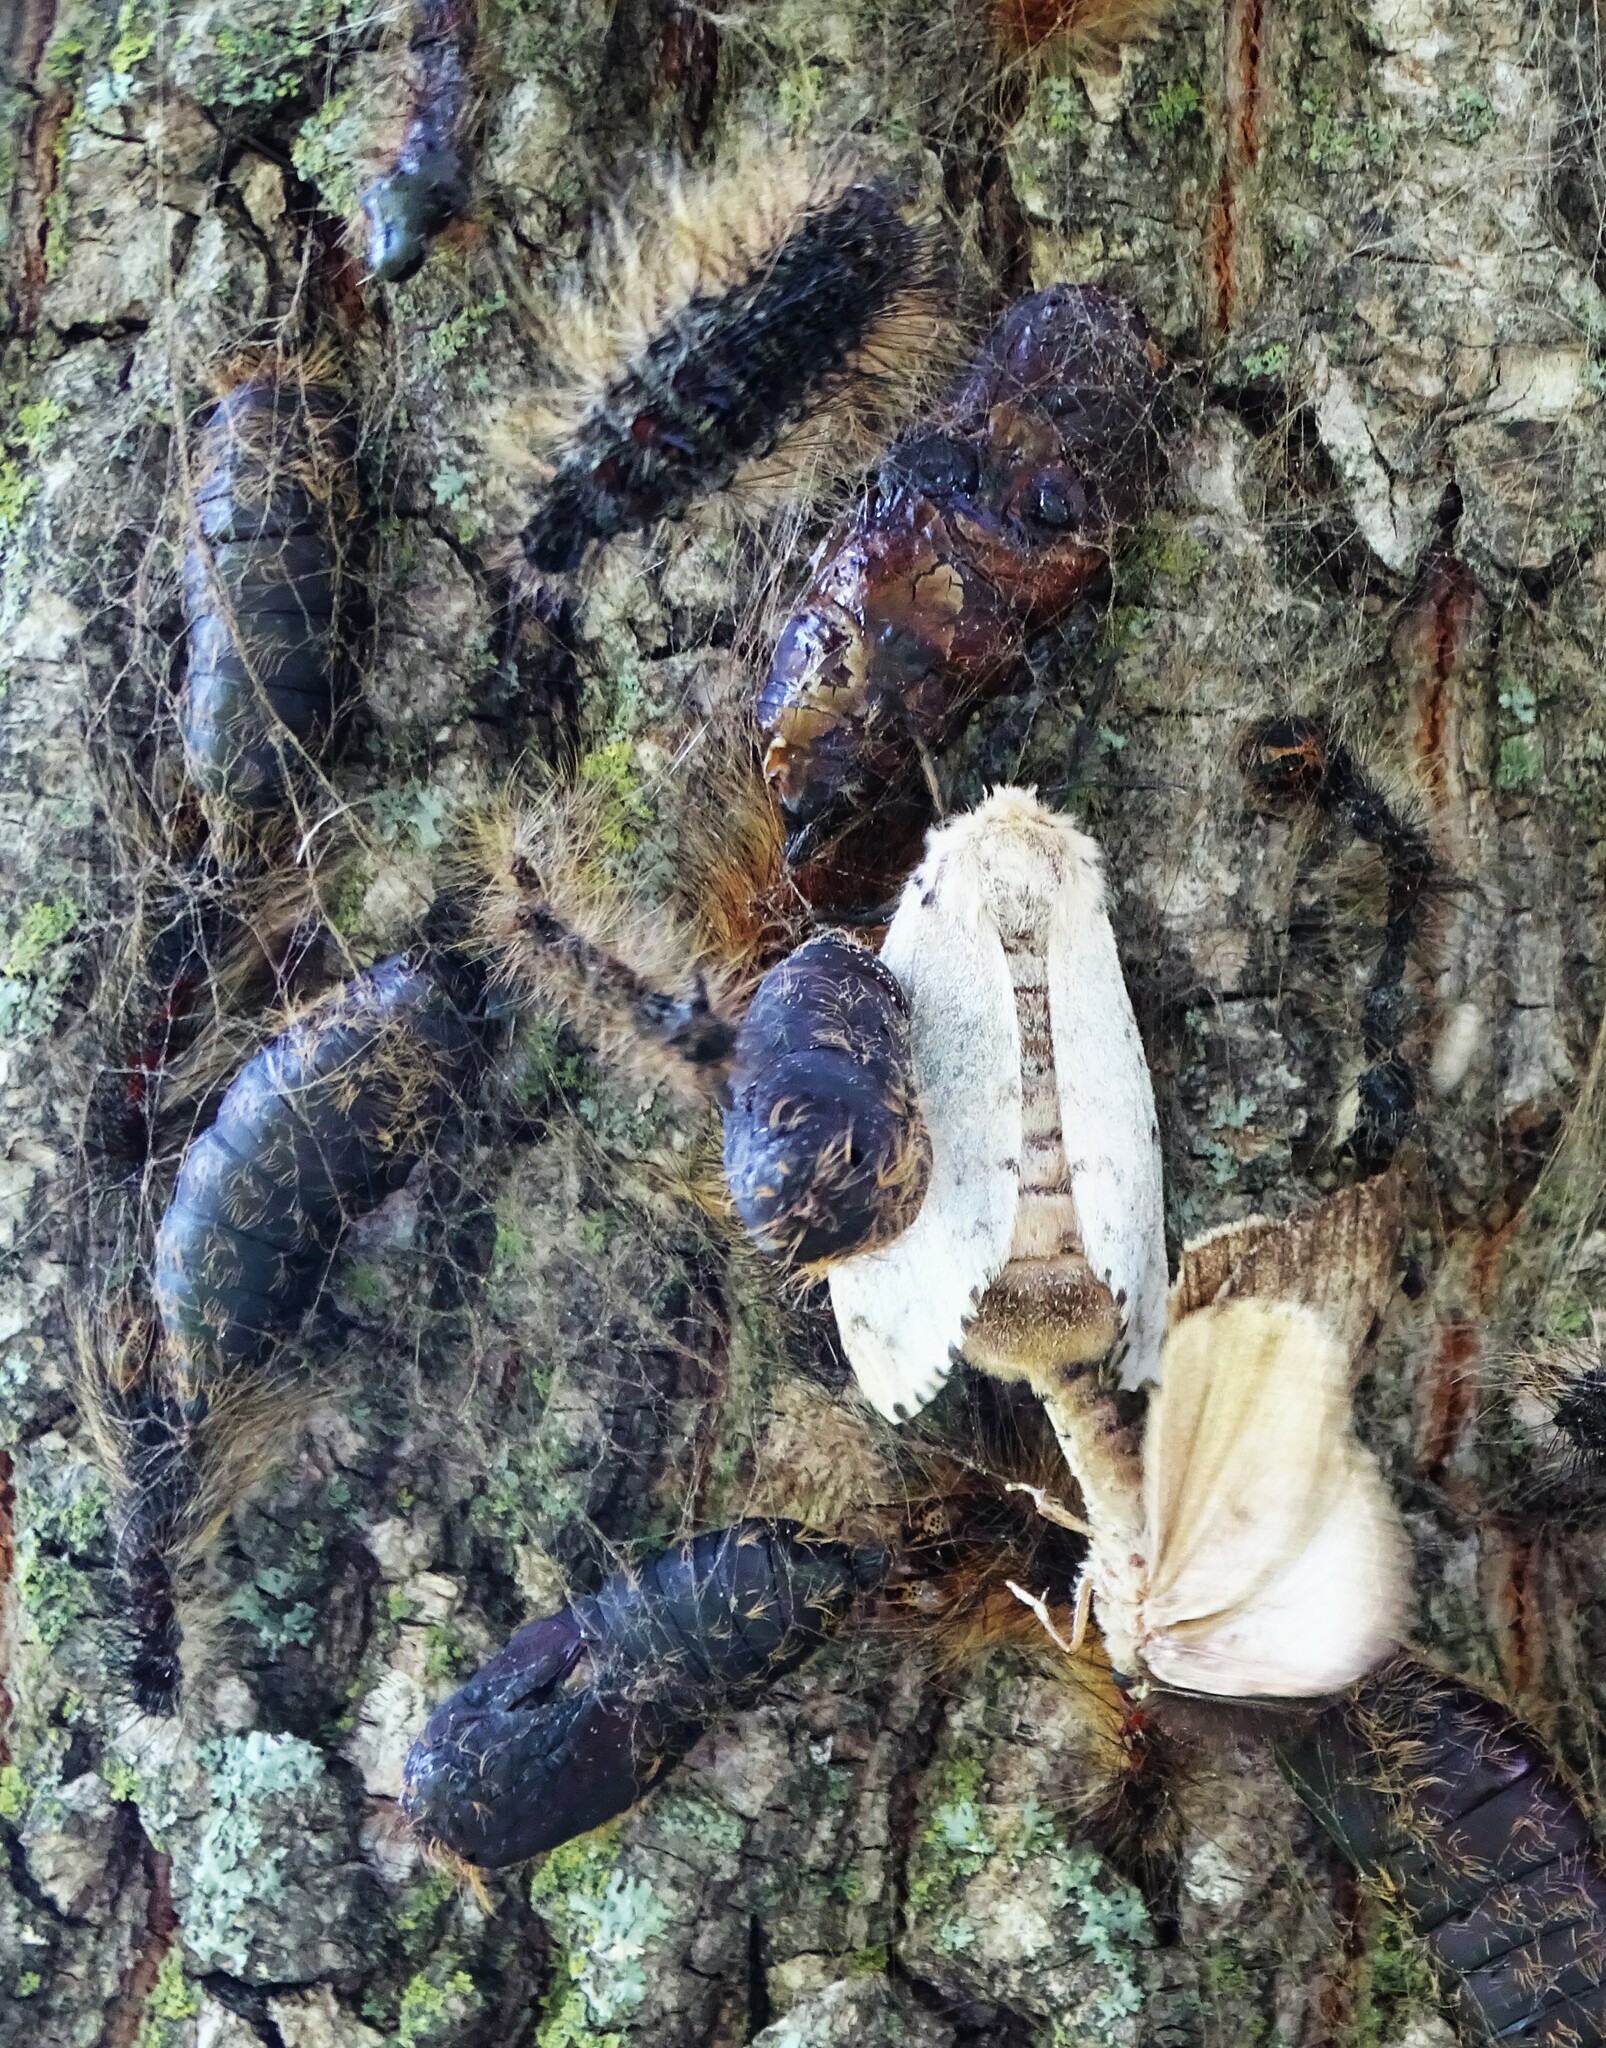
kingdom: Animalia
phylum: Arthropoda
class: Insecta
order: Lepidoptera
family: Erebidae
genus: Lymantria
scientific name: Lymantria dispar
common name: Gypsy moth
